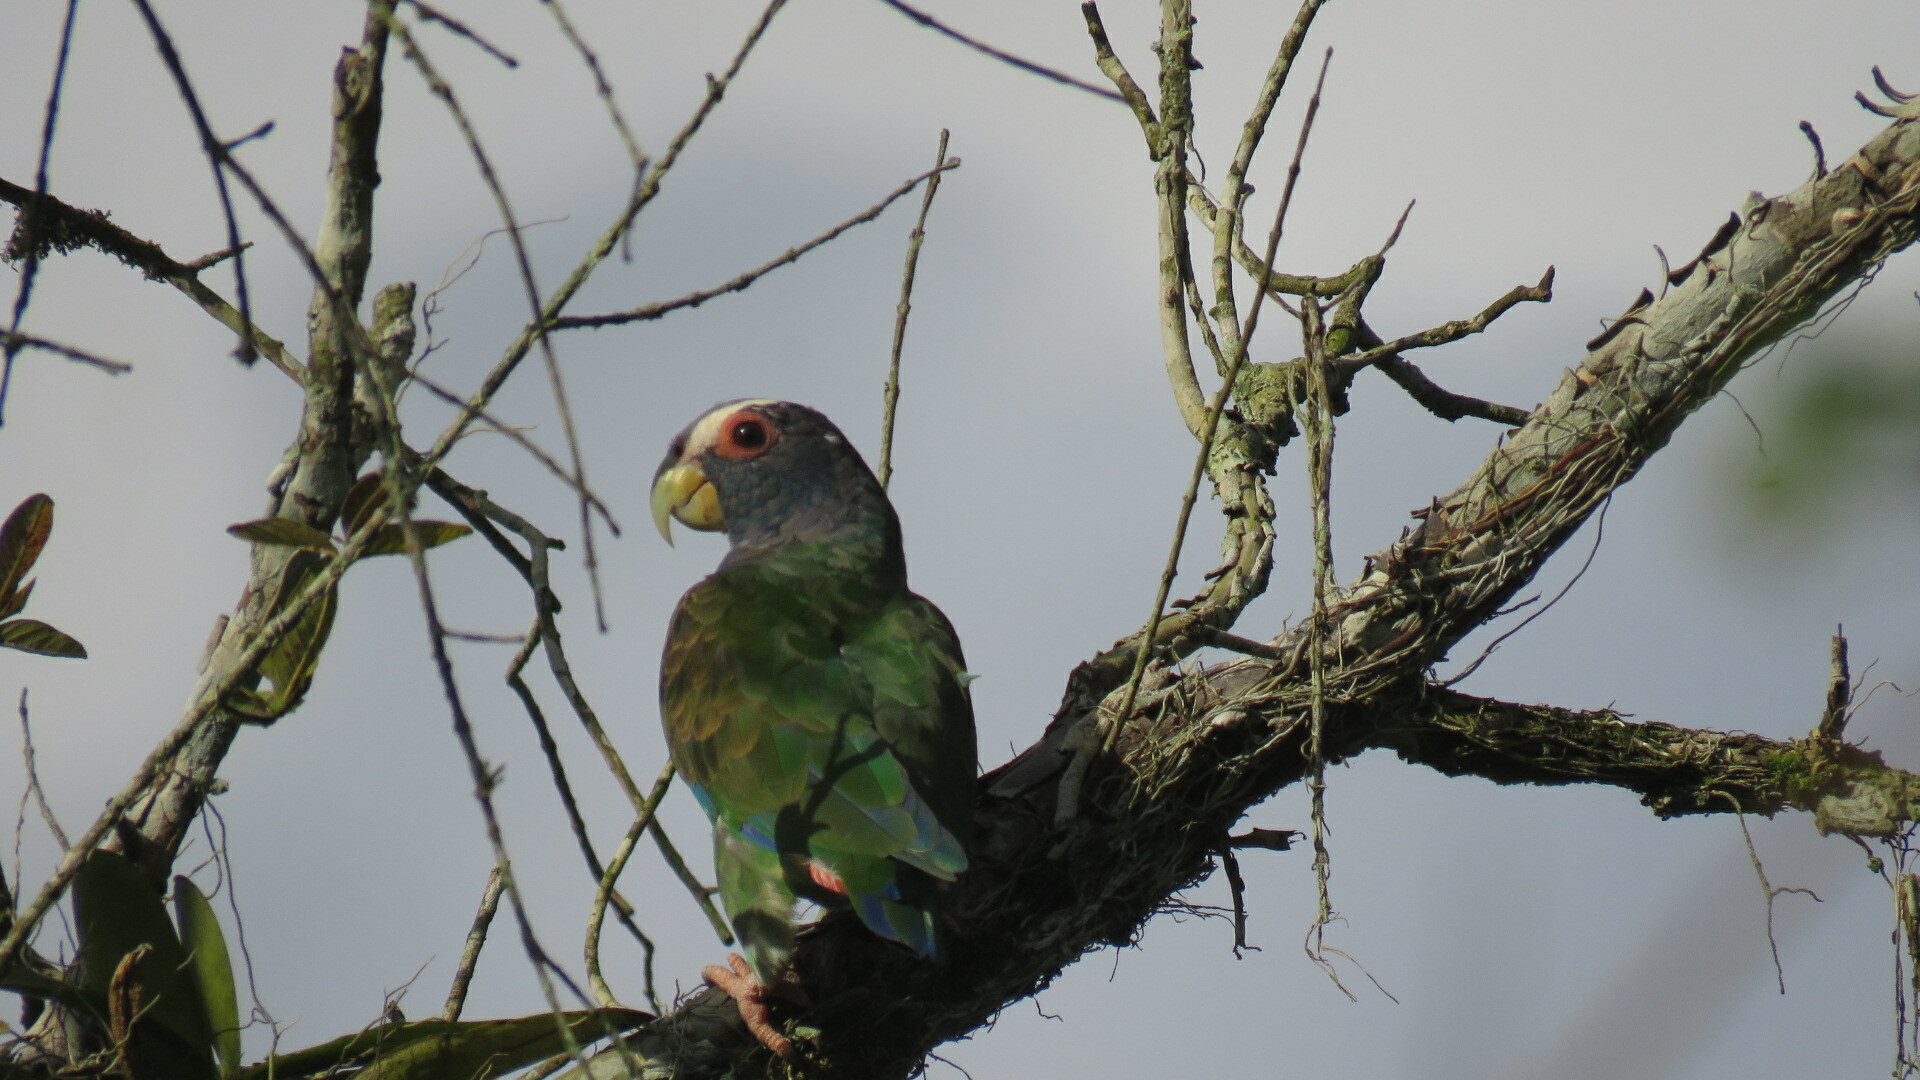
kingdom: Animalia
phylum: Chordata
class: Aves
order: Psittaciformes
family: Psittacidae
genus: Pionus
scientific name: Pionus senilis
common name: White-crowned parrot
